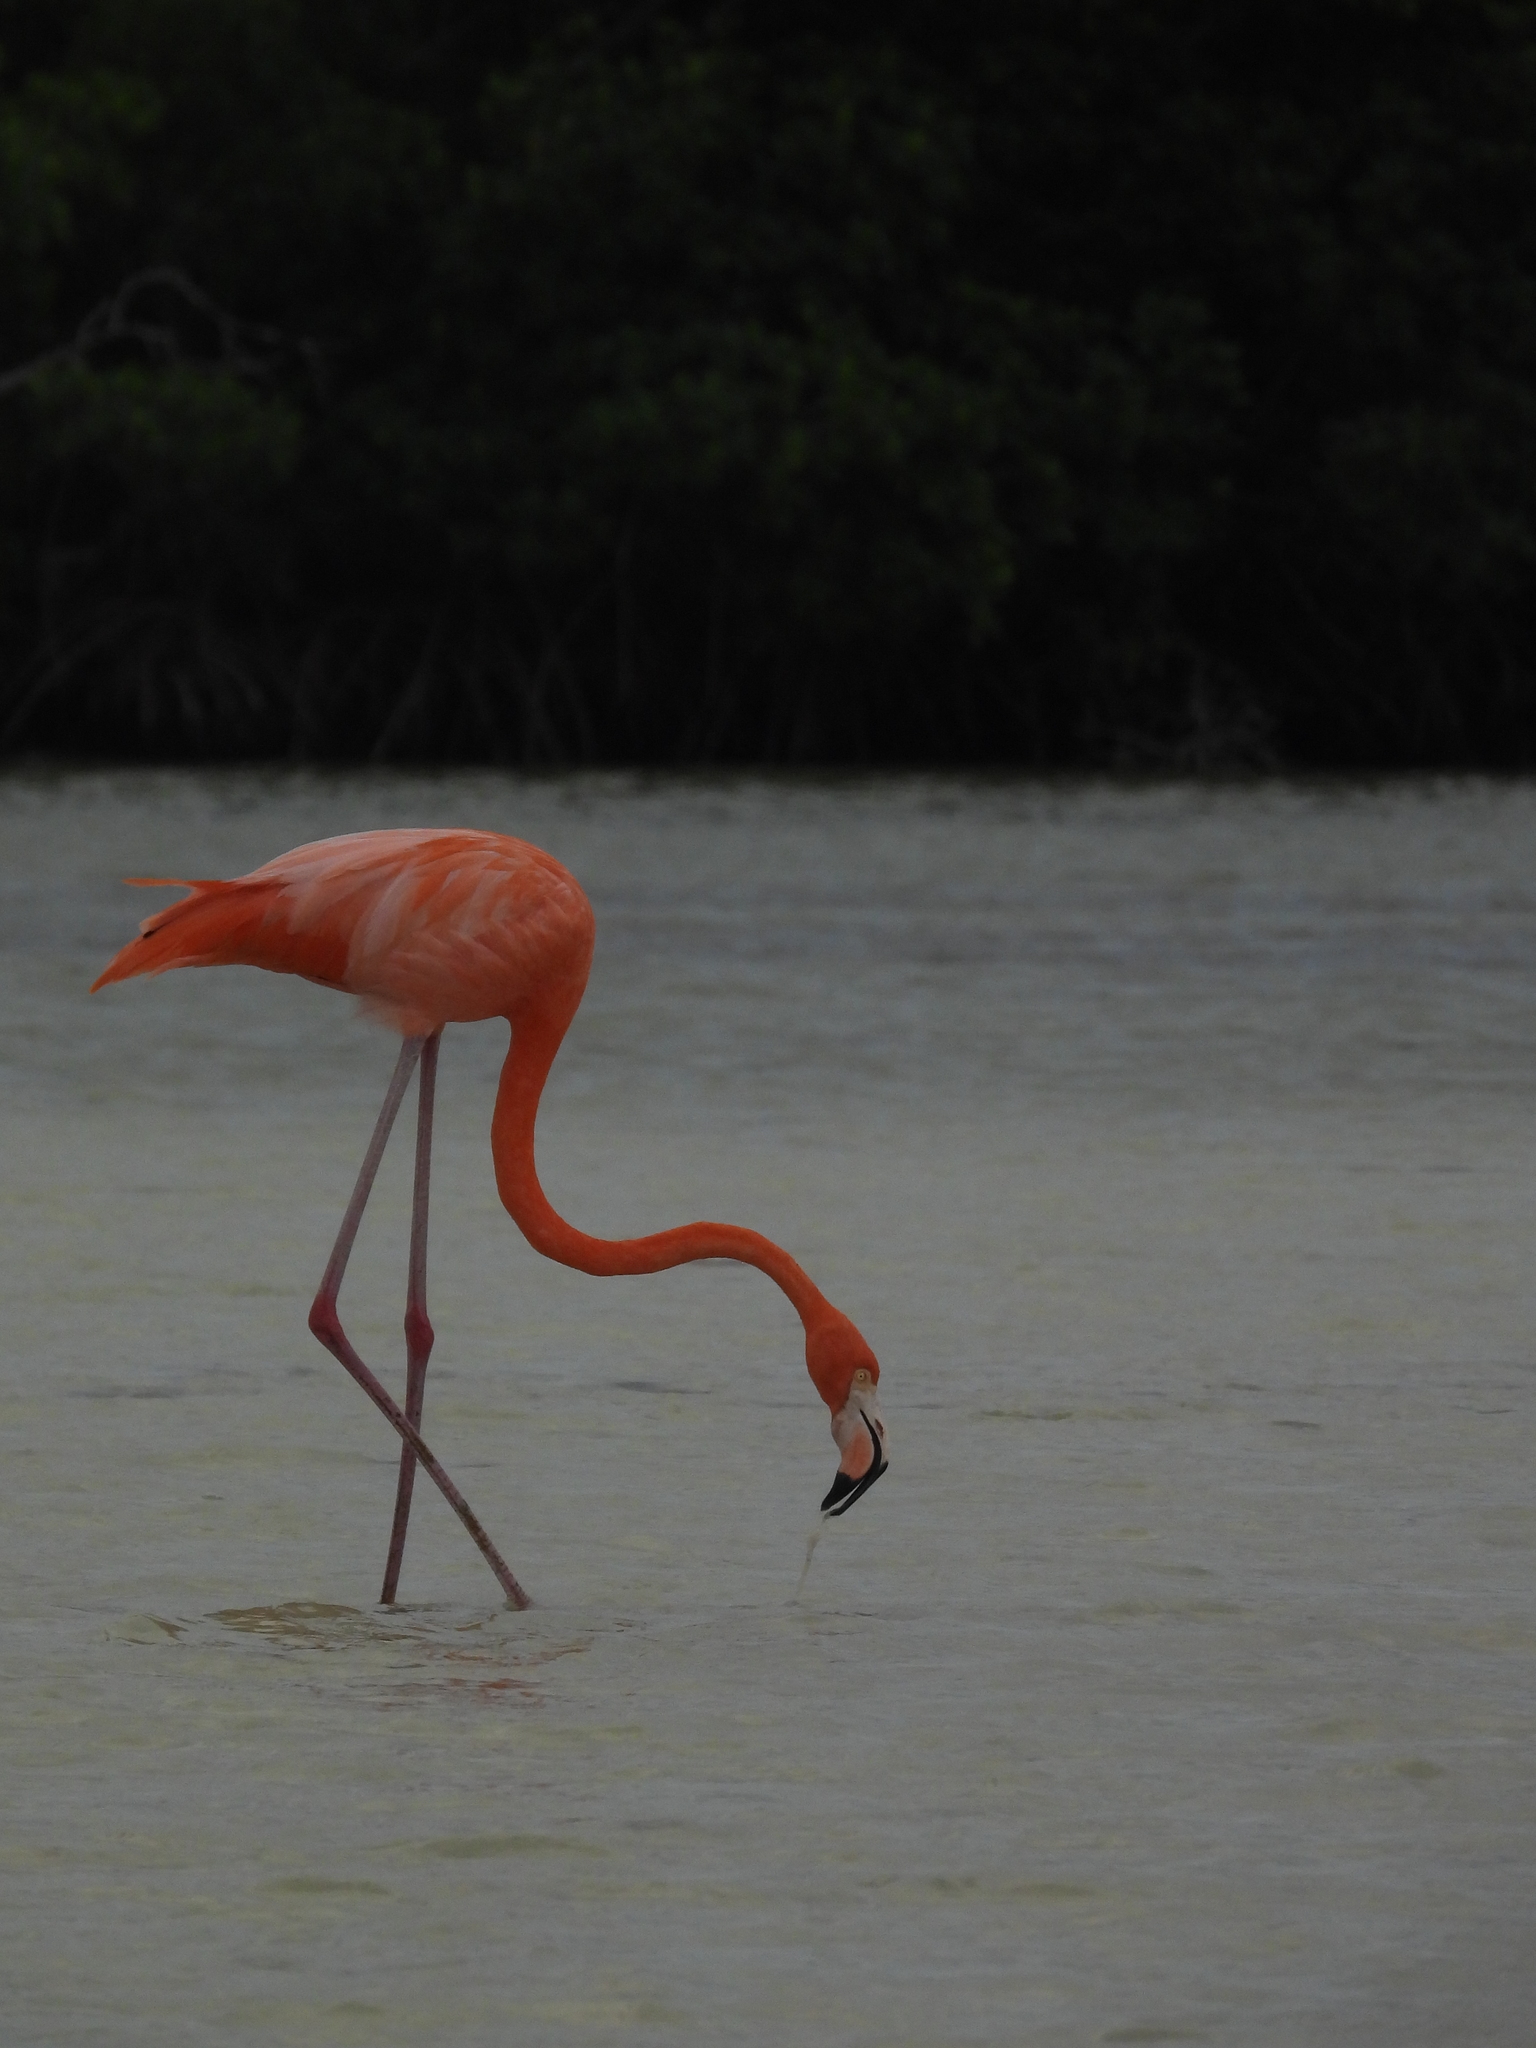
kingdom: Animalia
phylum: Chordata
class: Aves
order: Phoenicopteriformes
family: Phoenicopteridae
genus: Phoenicopterus
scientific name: Phoenicopterus ruber
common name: American flamingo
